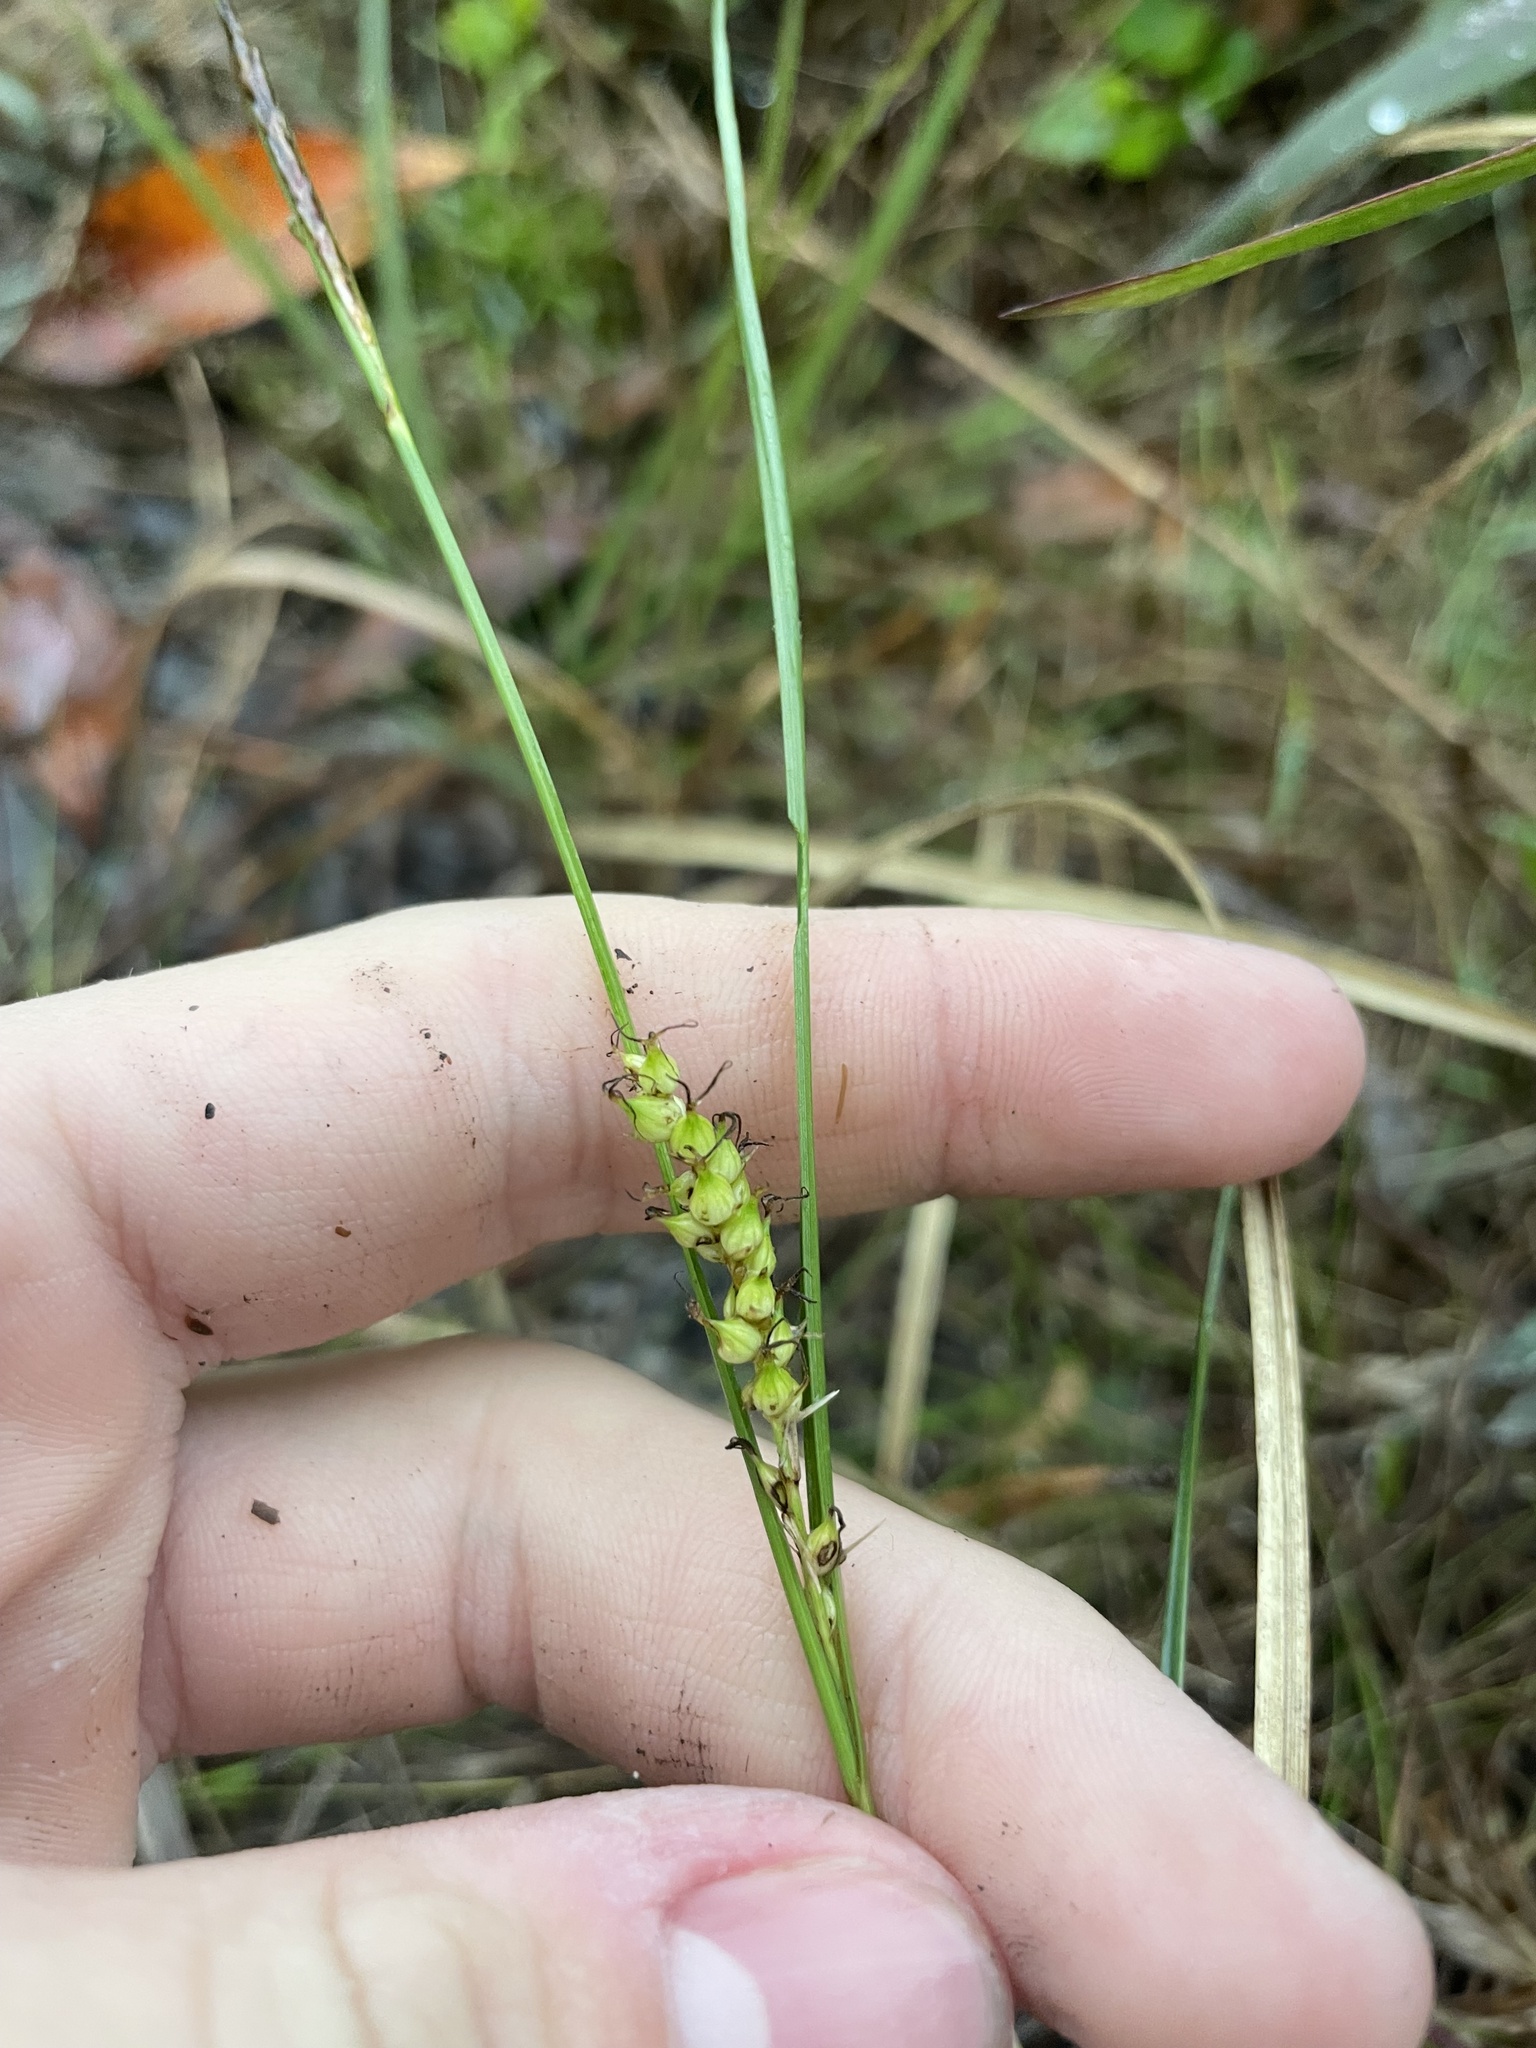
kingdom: Plantae
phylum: Tracheophyta
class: Liliopsida
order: Poales
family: Cyperaceae
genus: Carex
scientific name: Carex striata
